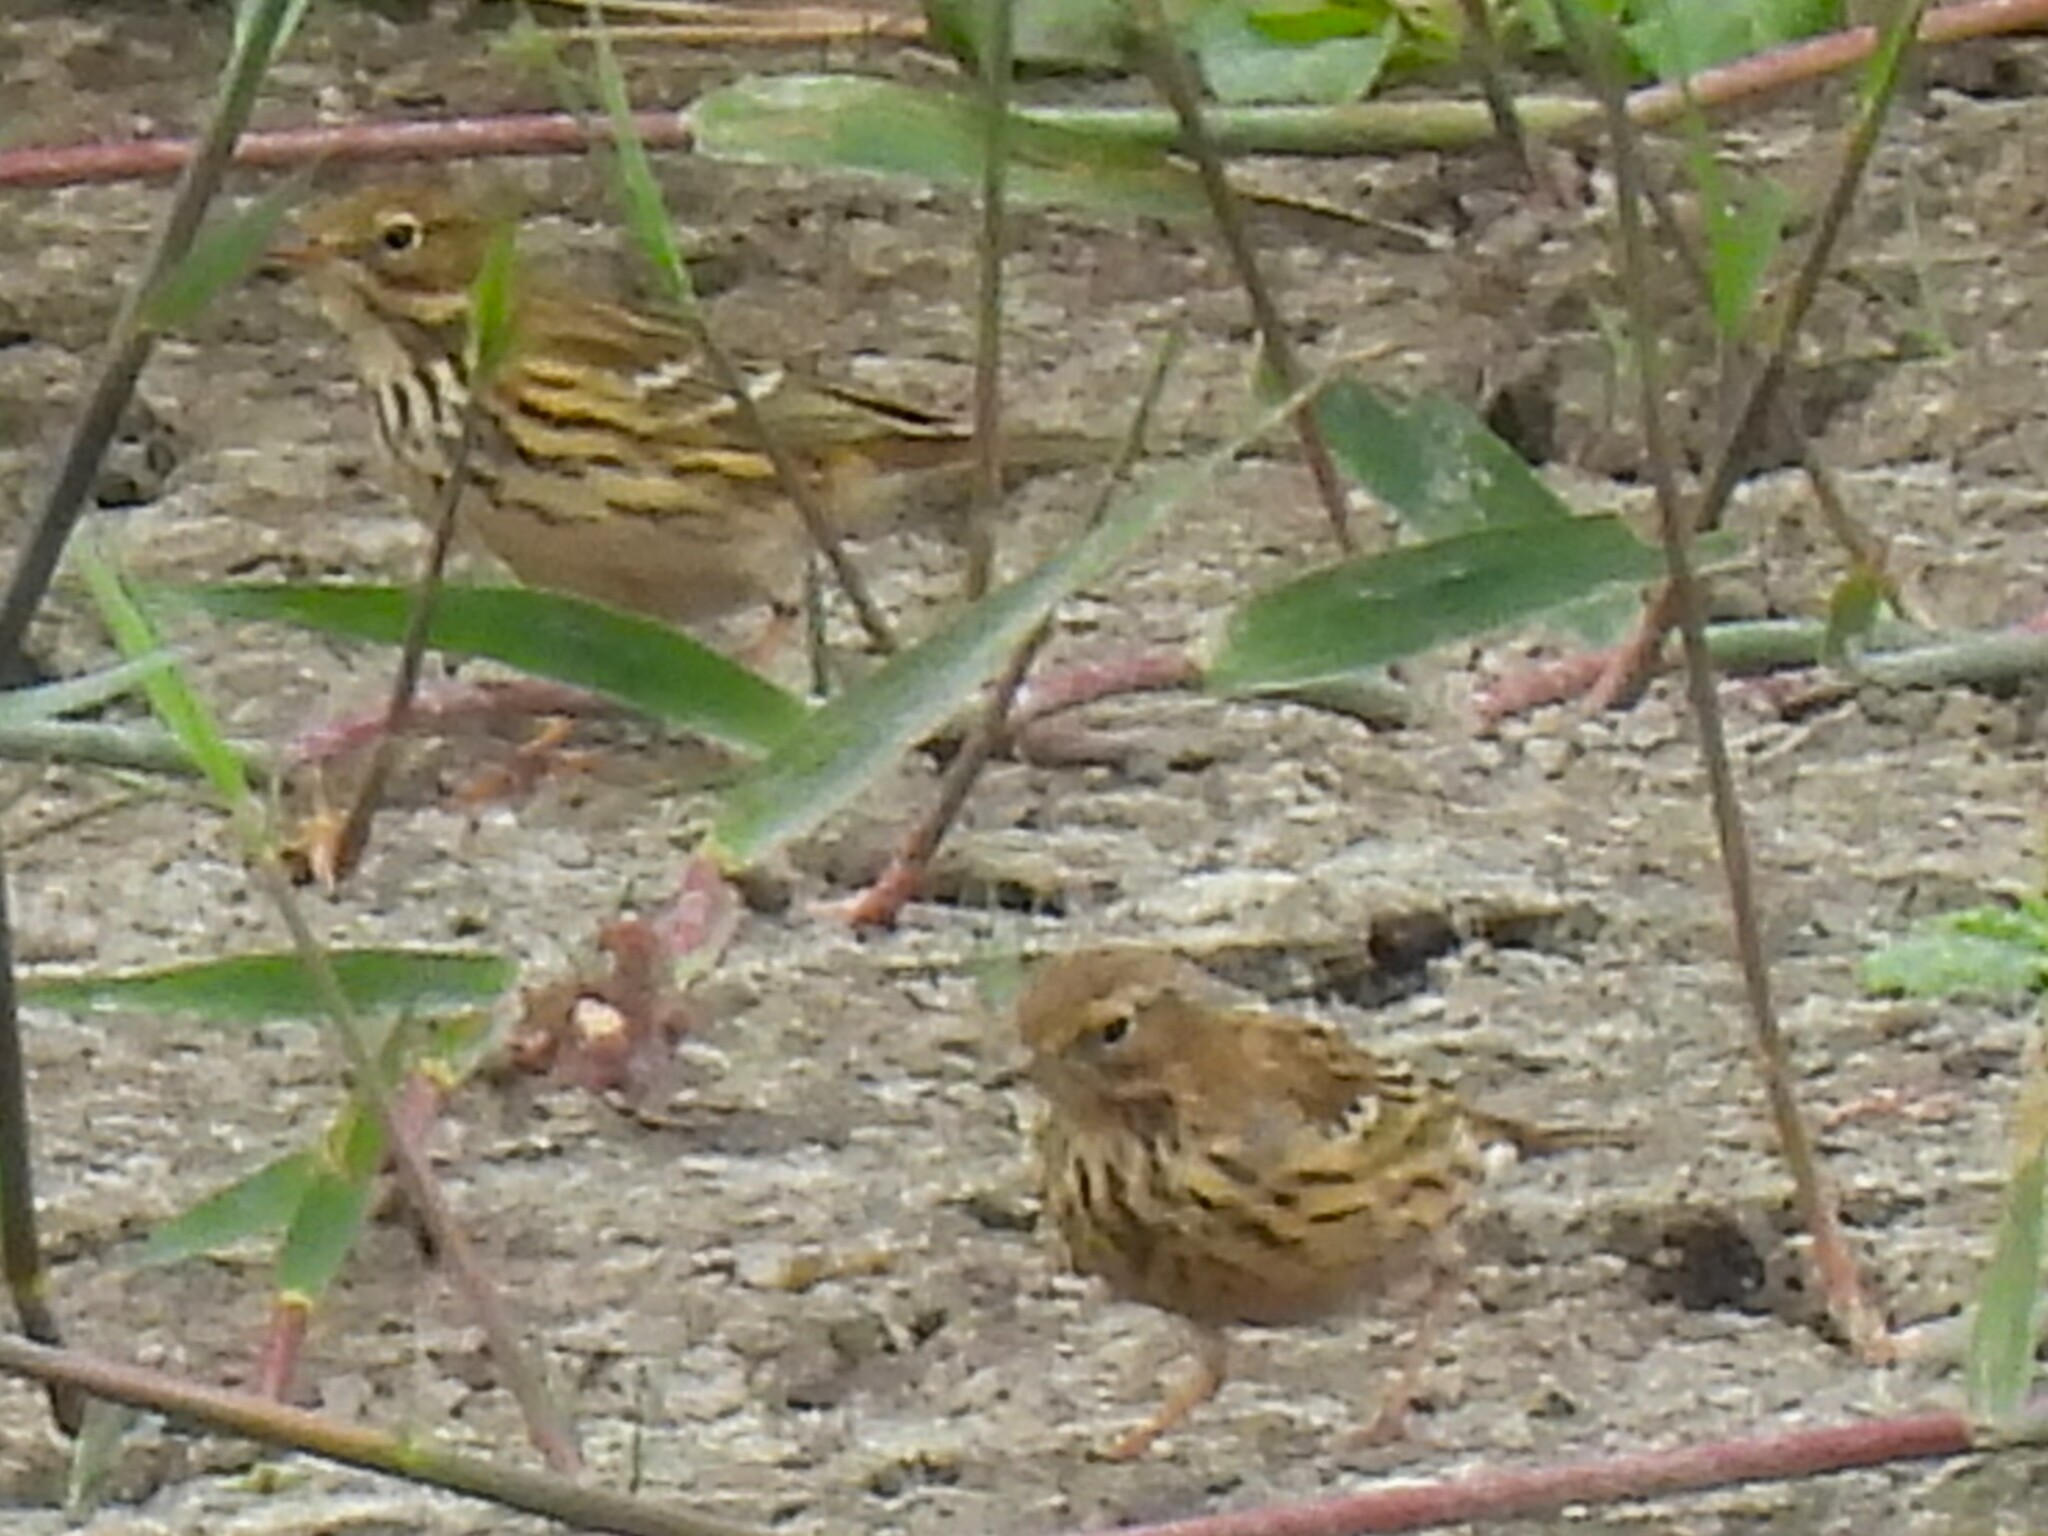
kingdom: Animalia
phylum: Chordata
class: Aves
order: Passeriformes
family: Motacillidae
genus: Anthus
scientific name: Anthus pratensis
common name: Meadow pipit
